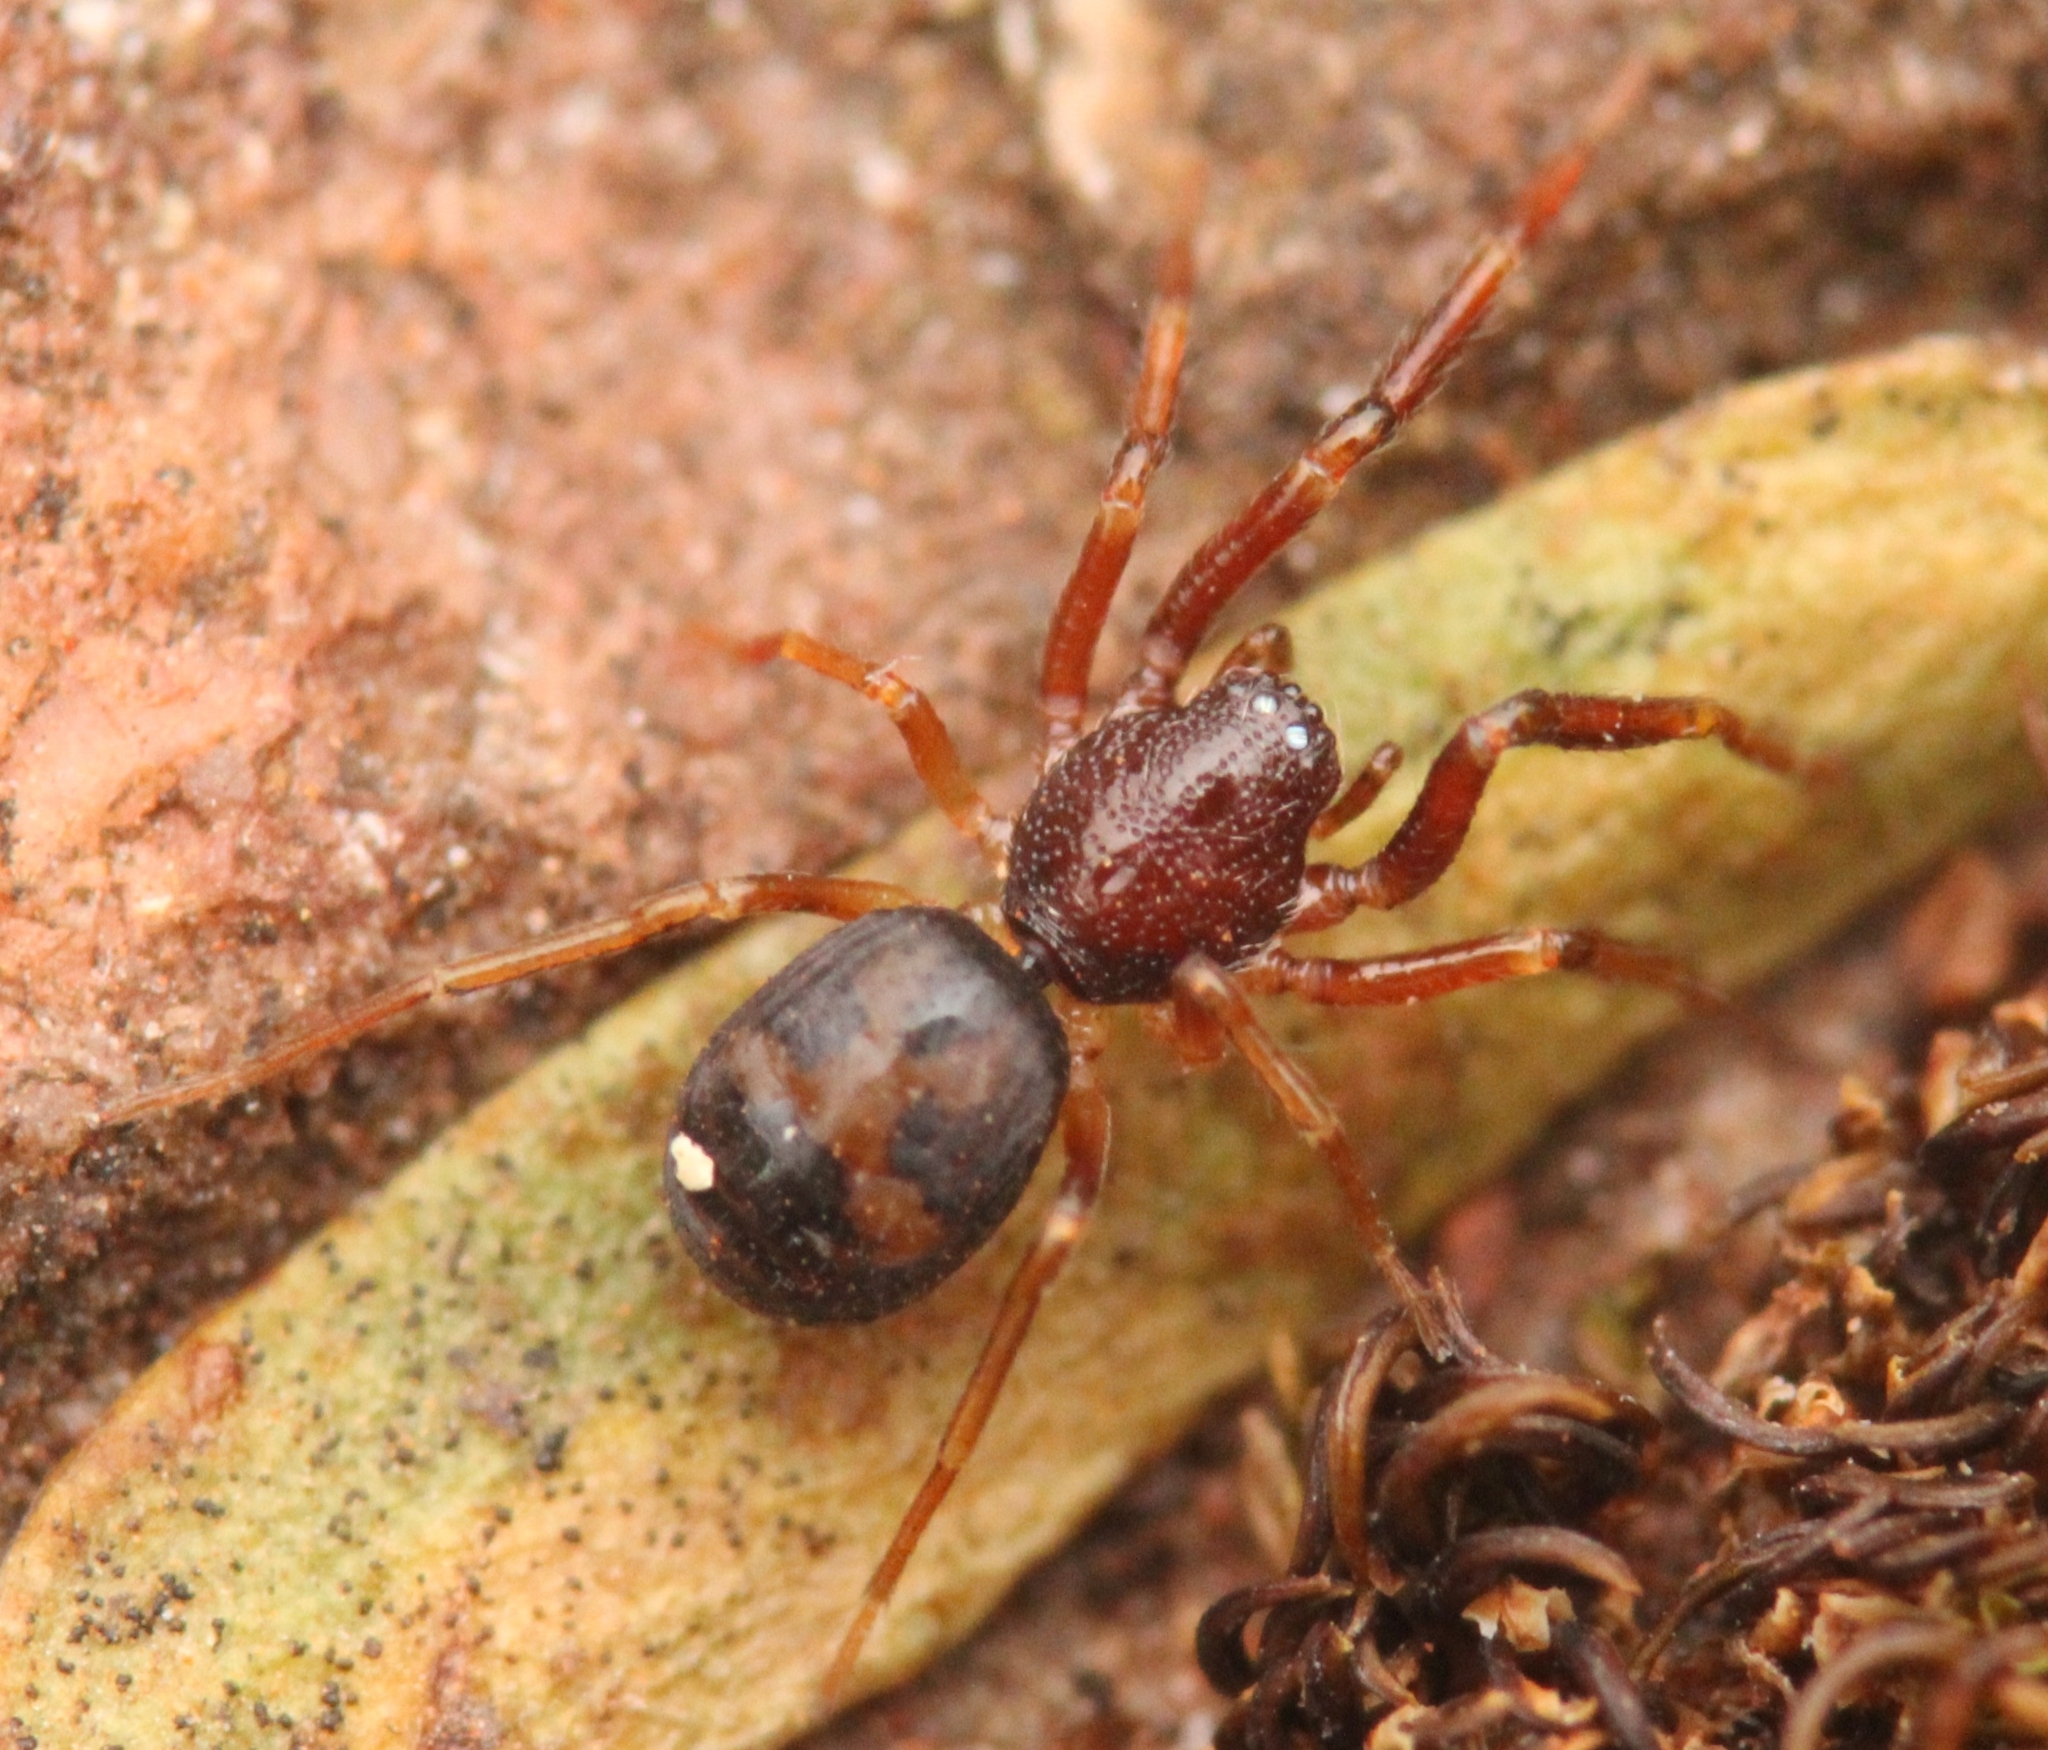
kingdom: Animalia
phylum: Arthropoda
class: Arachnida
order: Araneae
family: Trachelidae
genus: Orthobula
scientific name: Orthobula radiata
